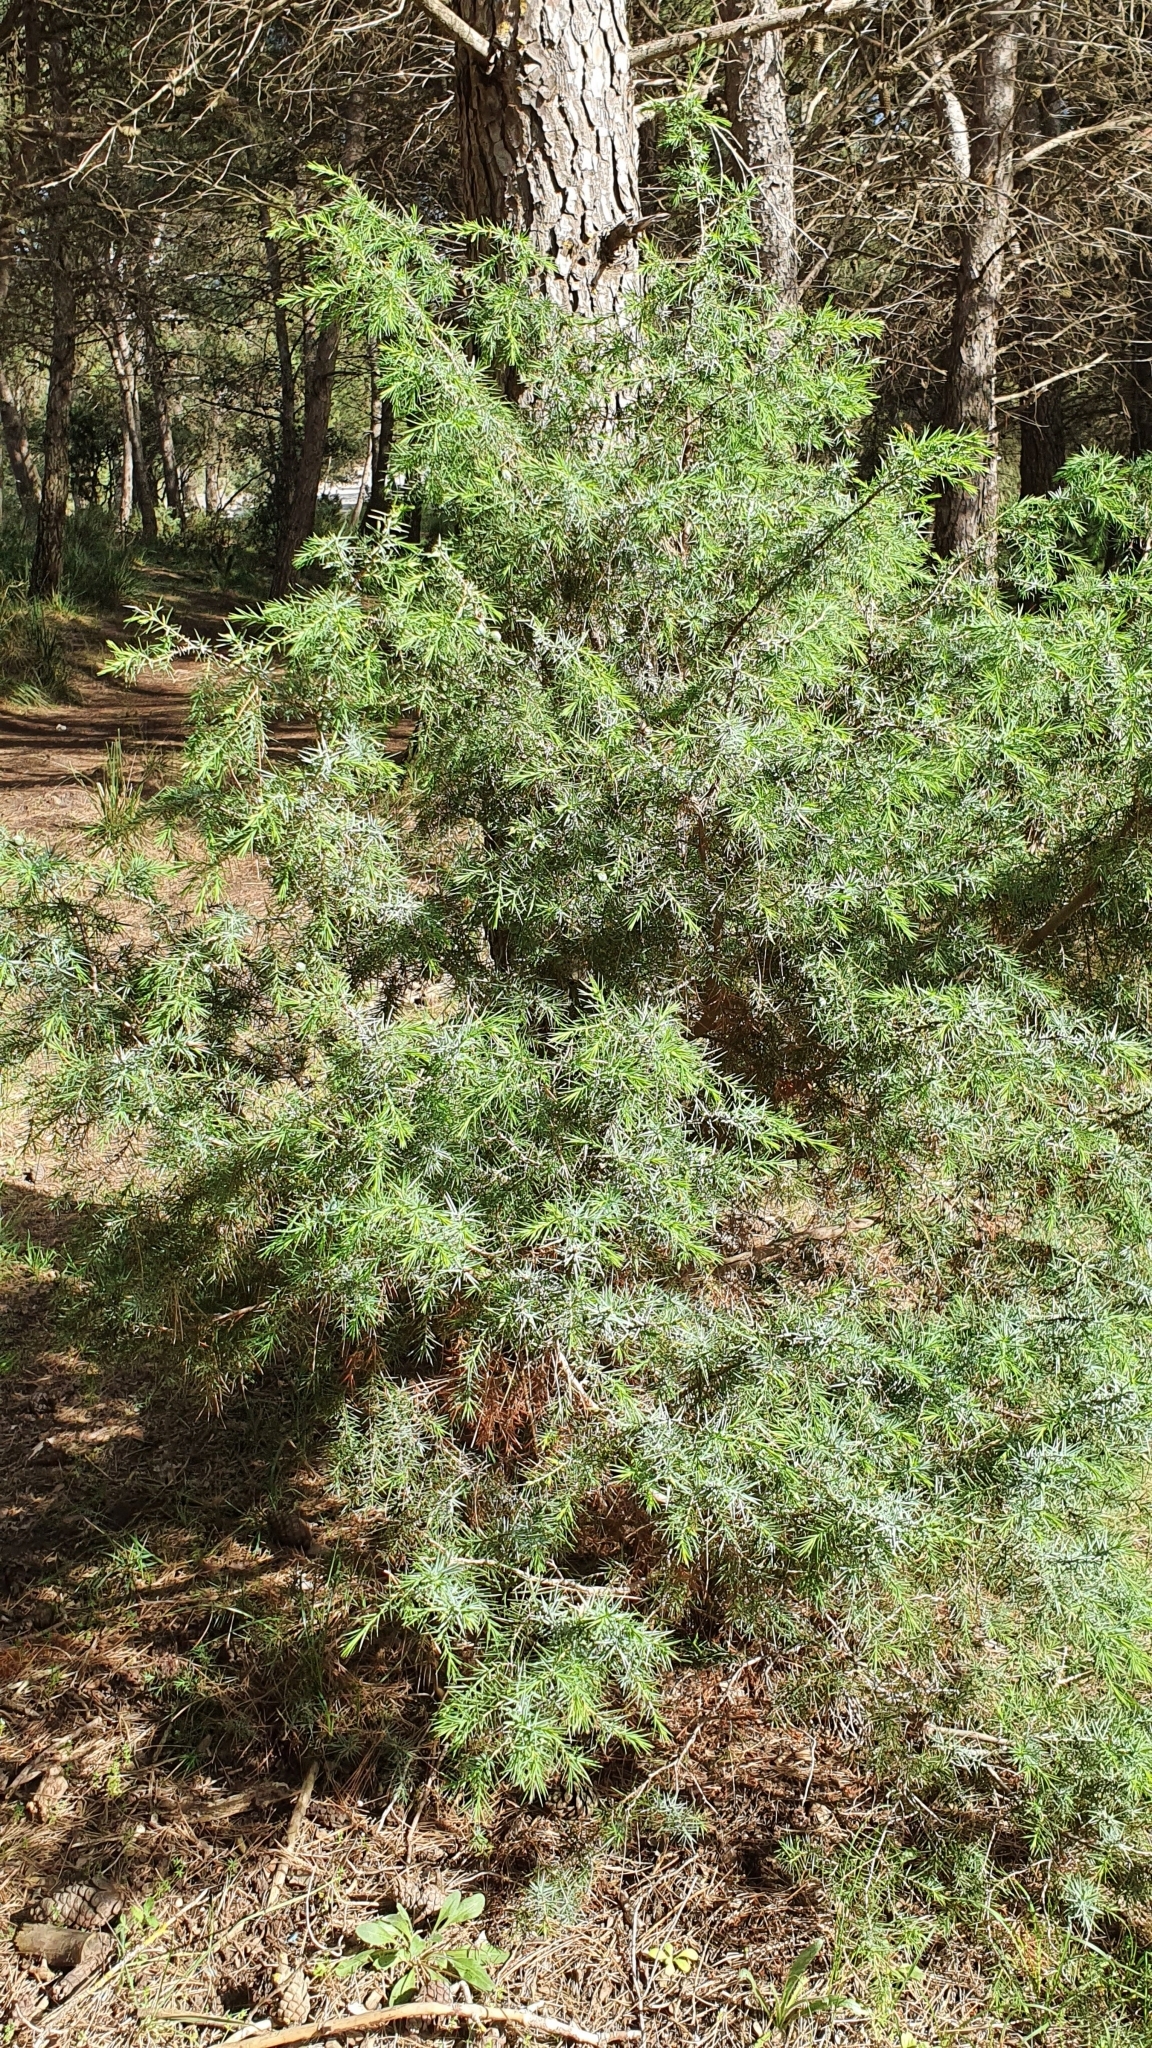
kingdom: Plantae
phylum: Tracheophyta
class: Pinopsida
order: Pinales
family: Cupressaceae
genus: Juniperus
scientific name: Juniperus oxycedrus
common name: Prickly juniper
